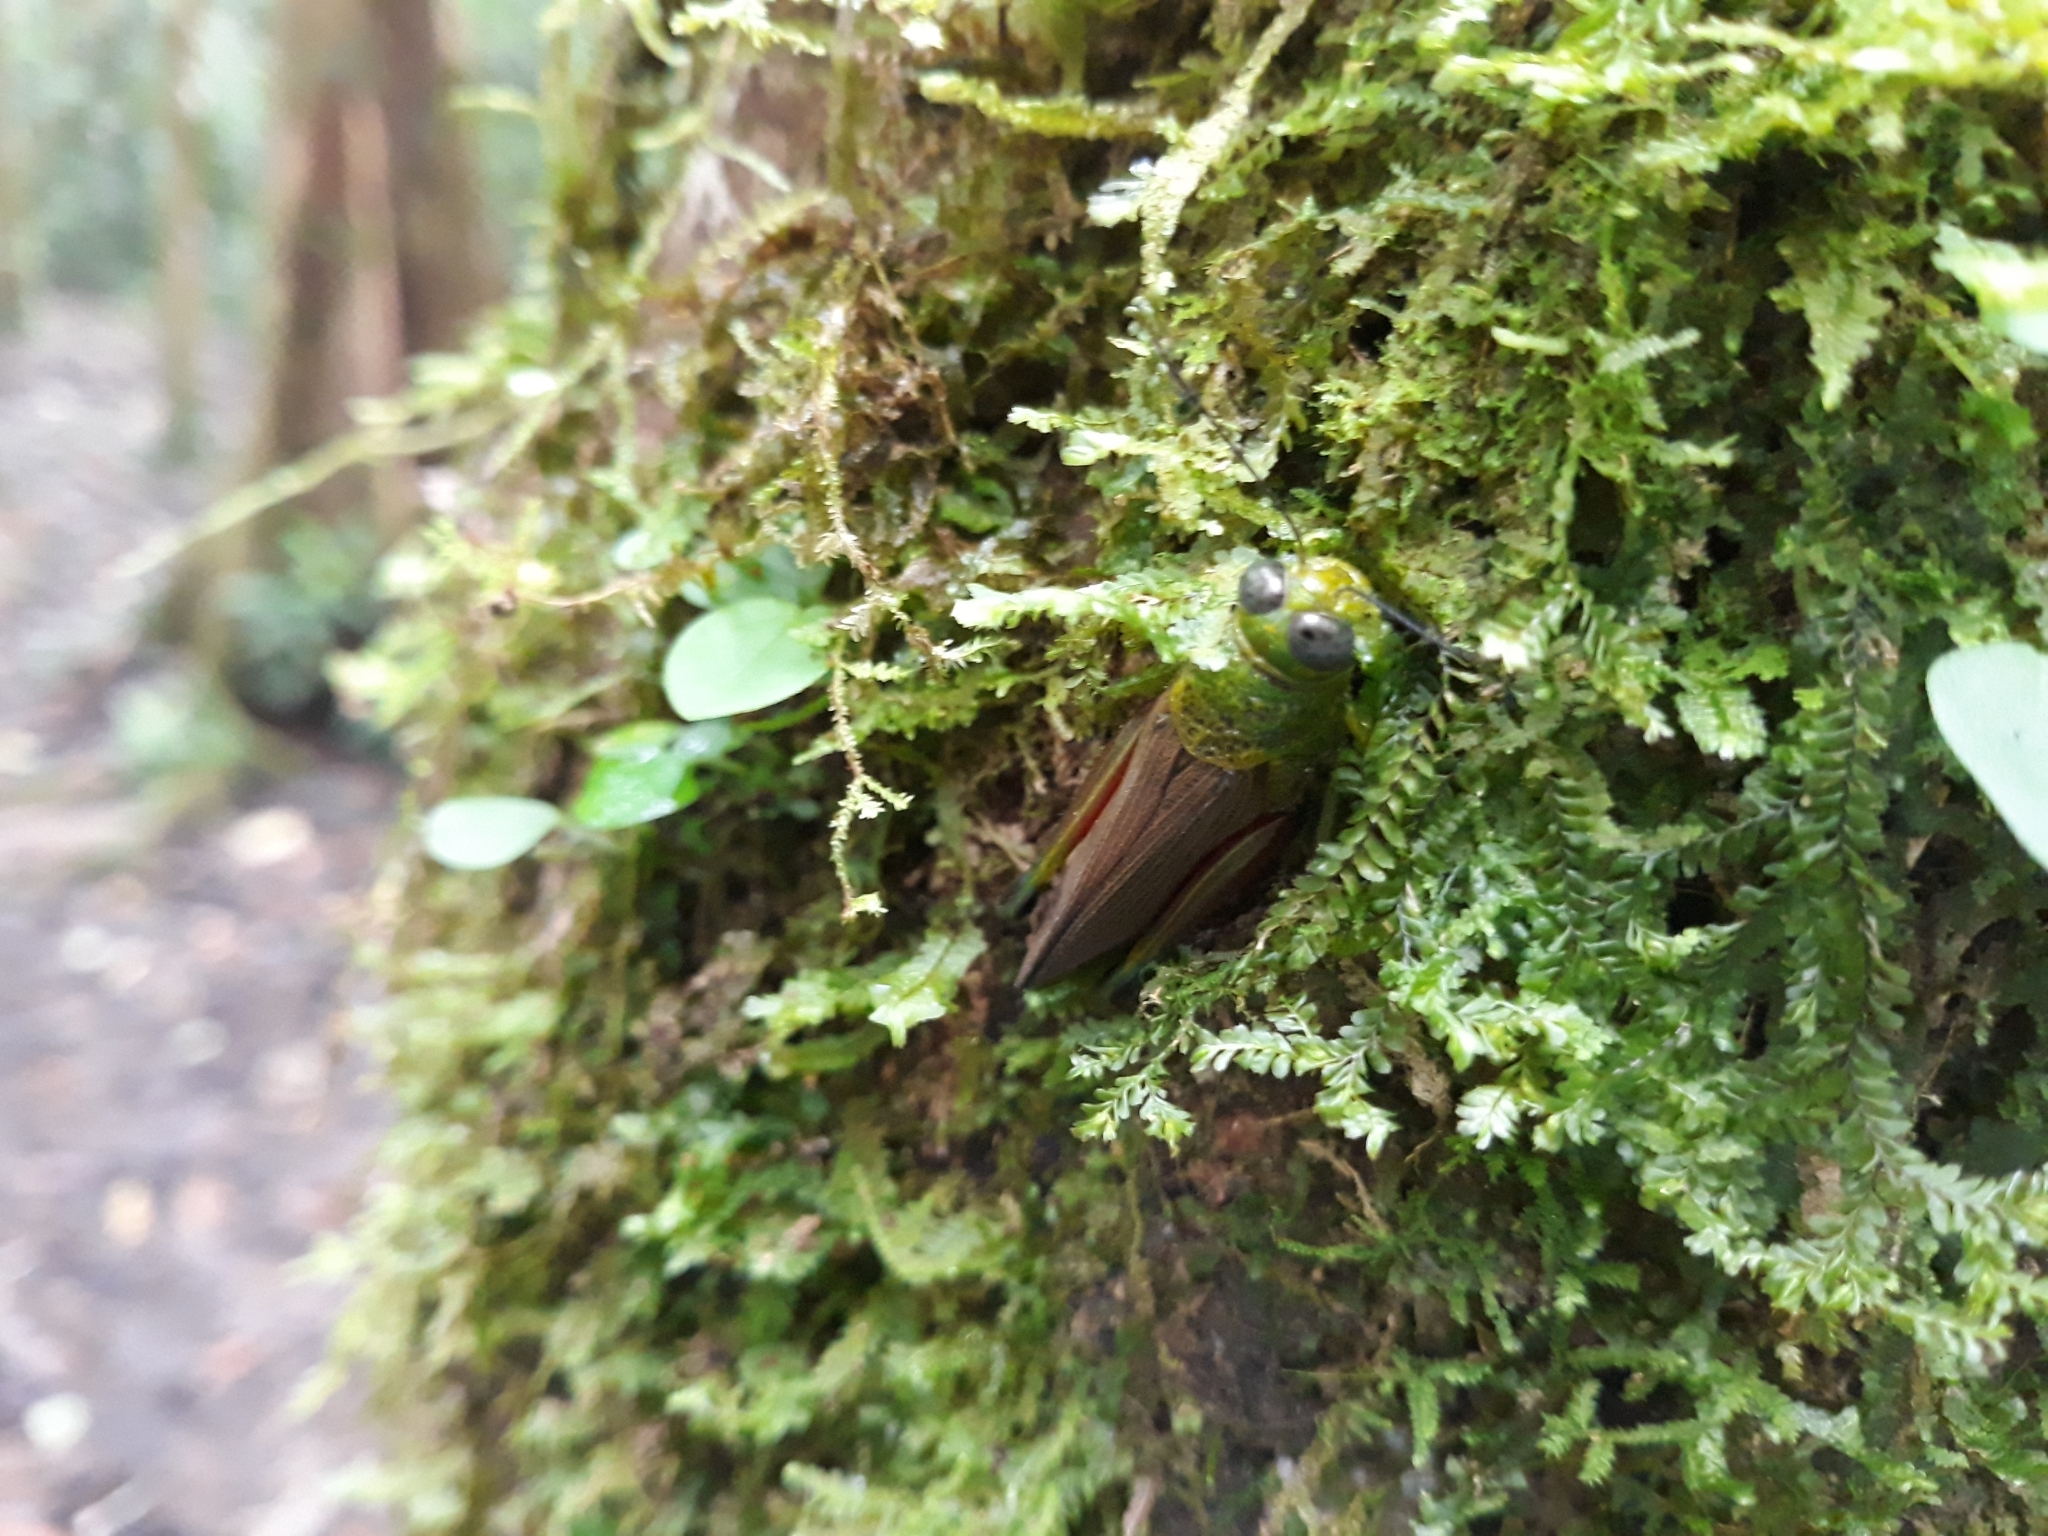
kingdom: Animalia
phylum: Arthropoda
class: Insecta
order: Orthoptera
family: Acrididae
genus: Coscineuta
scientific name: Coscineuta pulchripes
